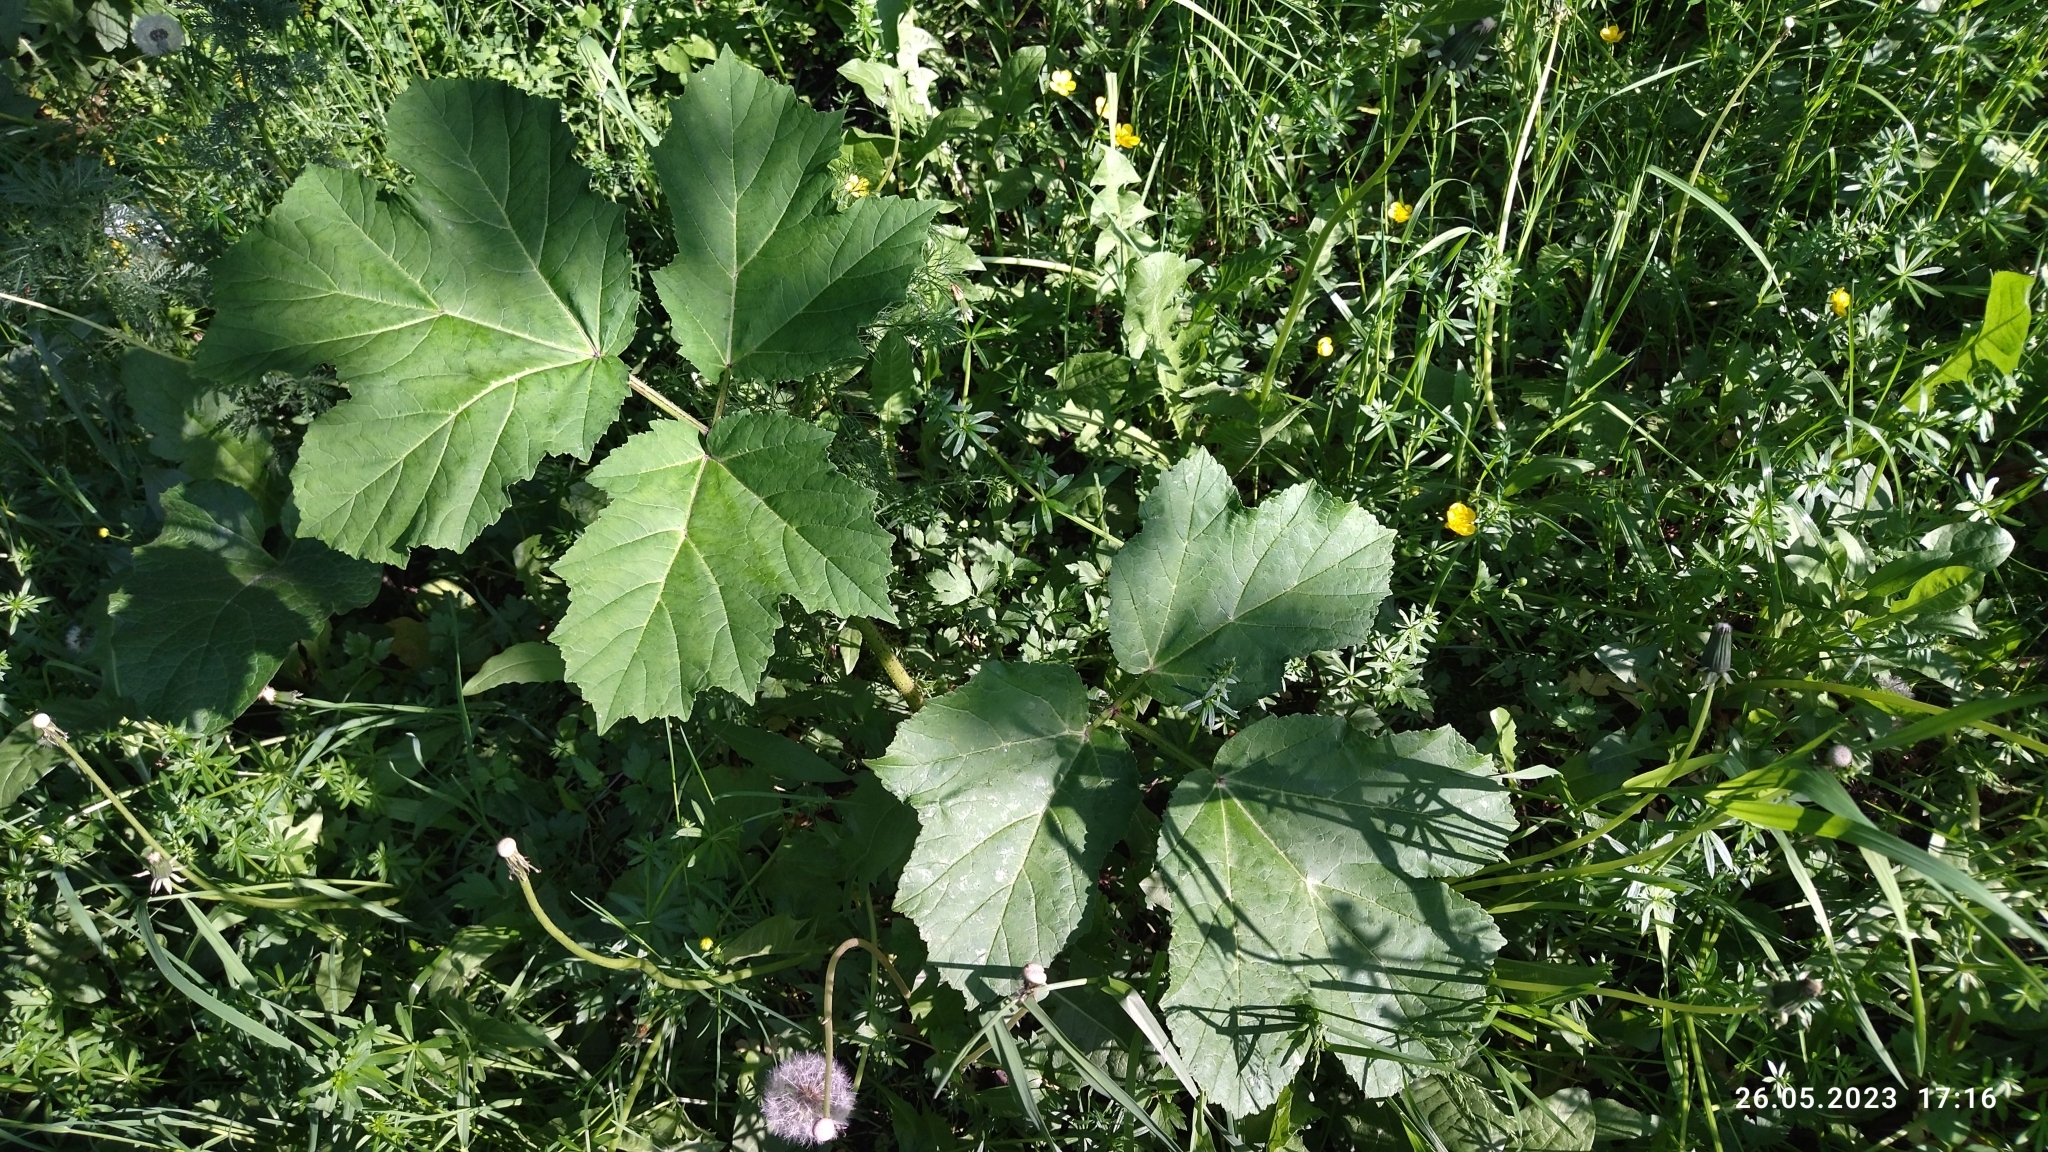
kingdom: Plantae
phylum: Tracheophyta
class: Magnoliopsida
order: Apiales
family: Apiaceae
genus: Heracleum
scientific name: Heracleum sosnowskyi
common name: Sosnowsky's hogweed
